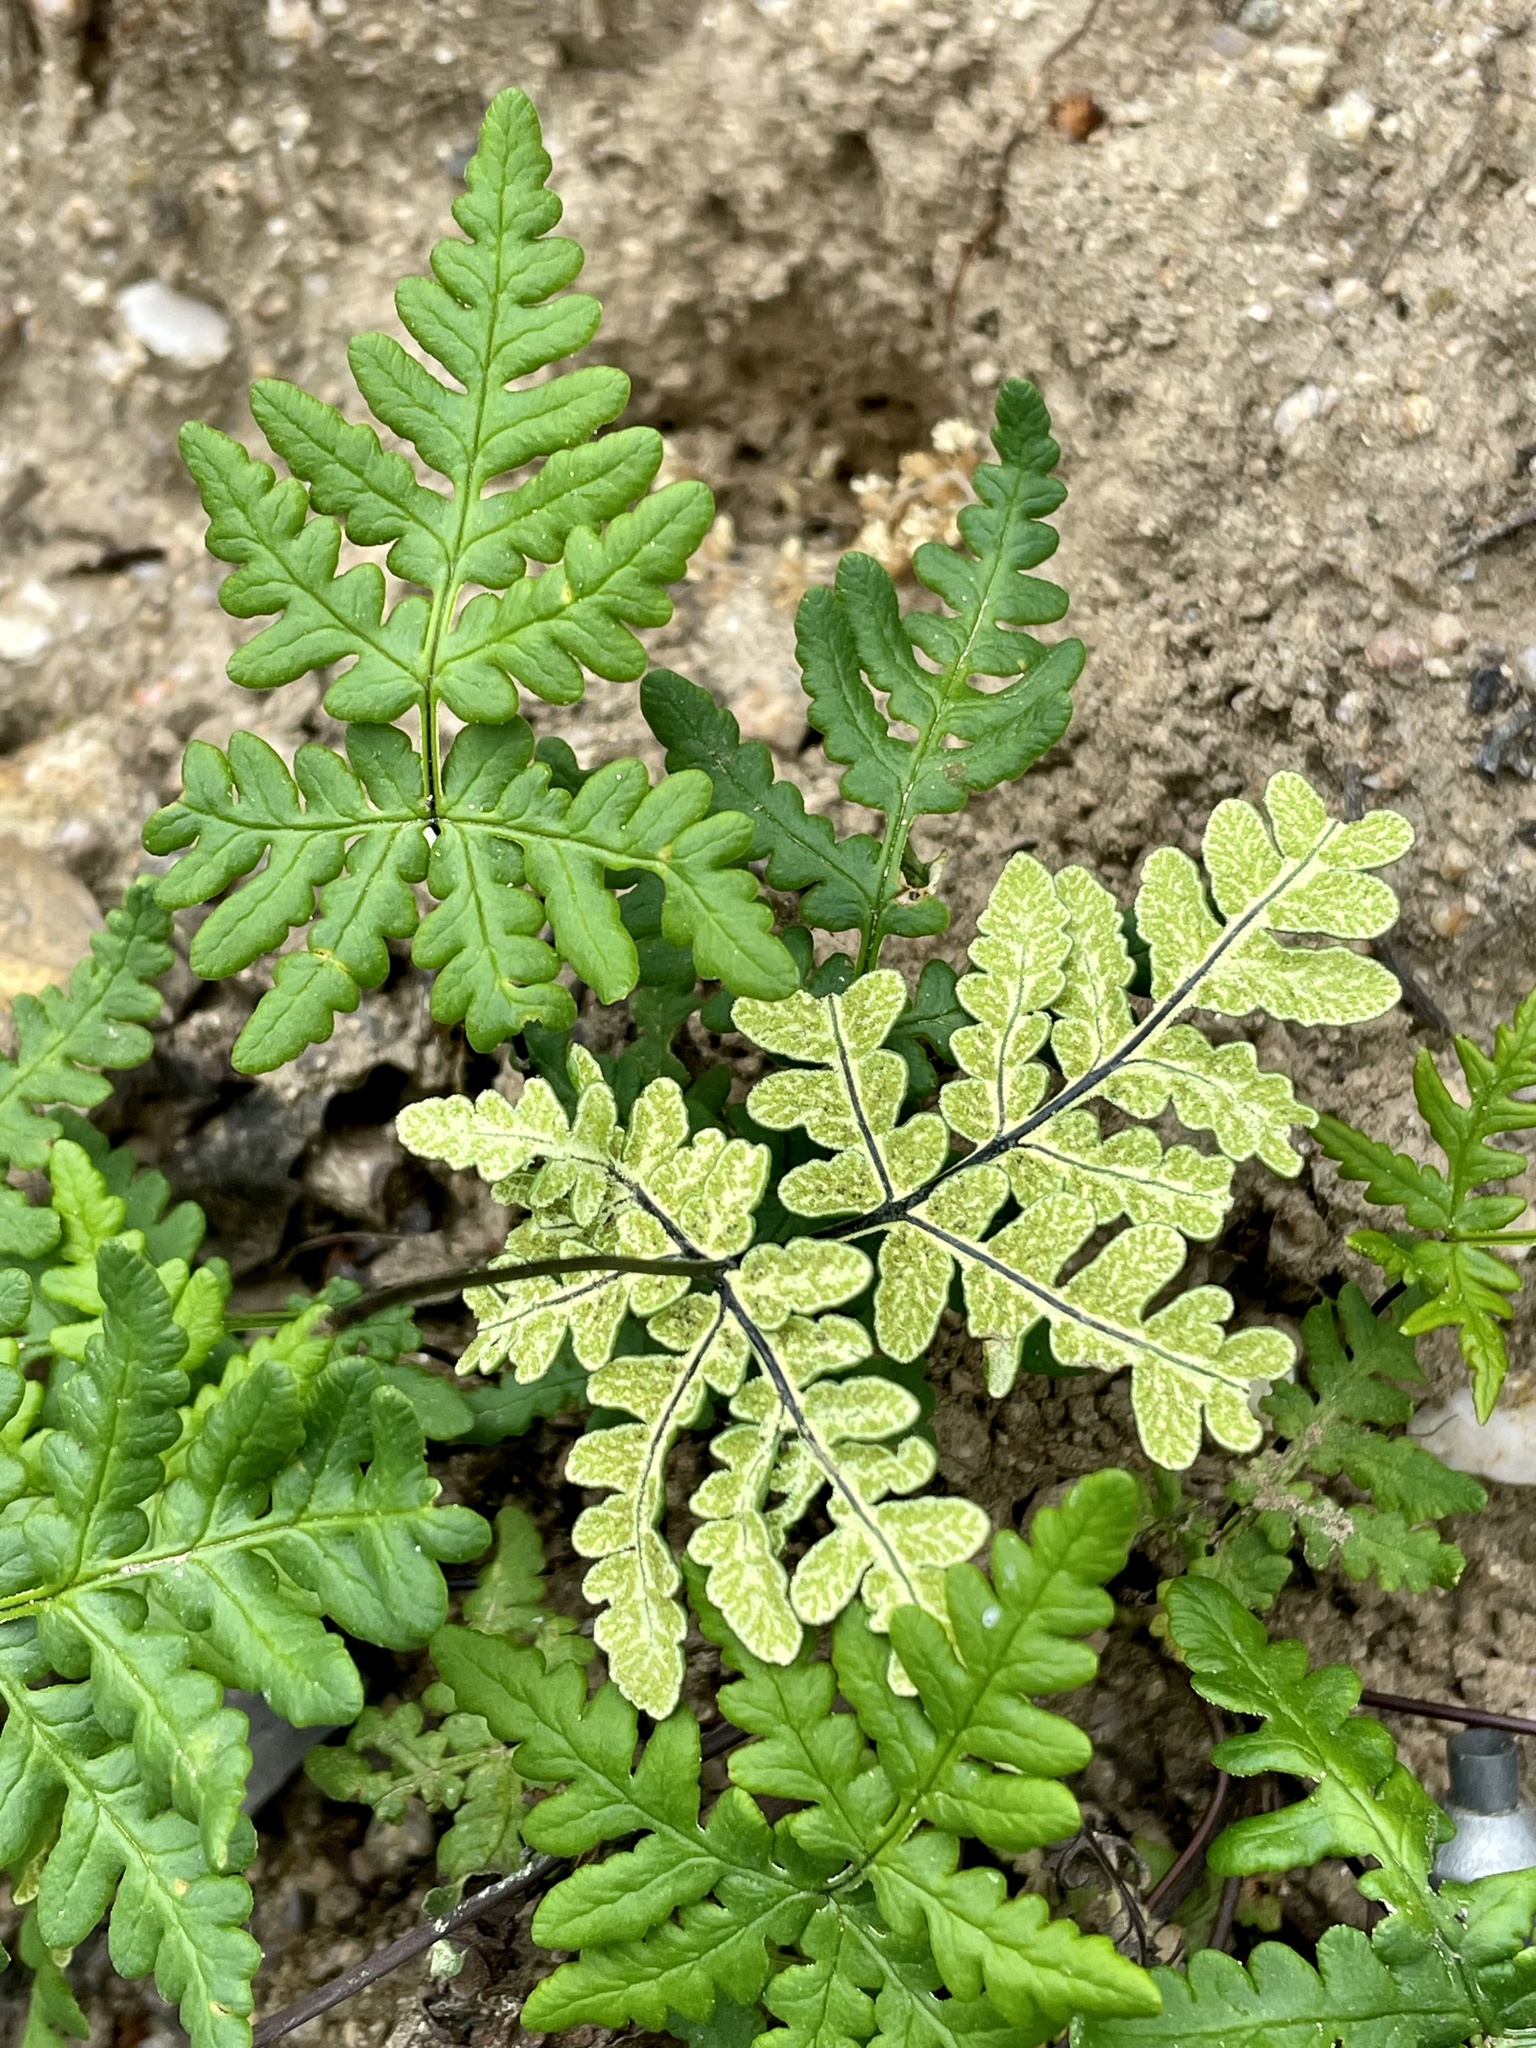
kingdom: Plantae
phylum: Tracheophyta
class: Polypodiopsida
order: Polypodiales
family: Pteridaceae
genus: Pentagramma
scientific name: Pentagramma triangularis
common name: Gold fern
